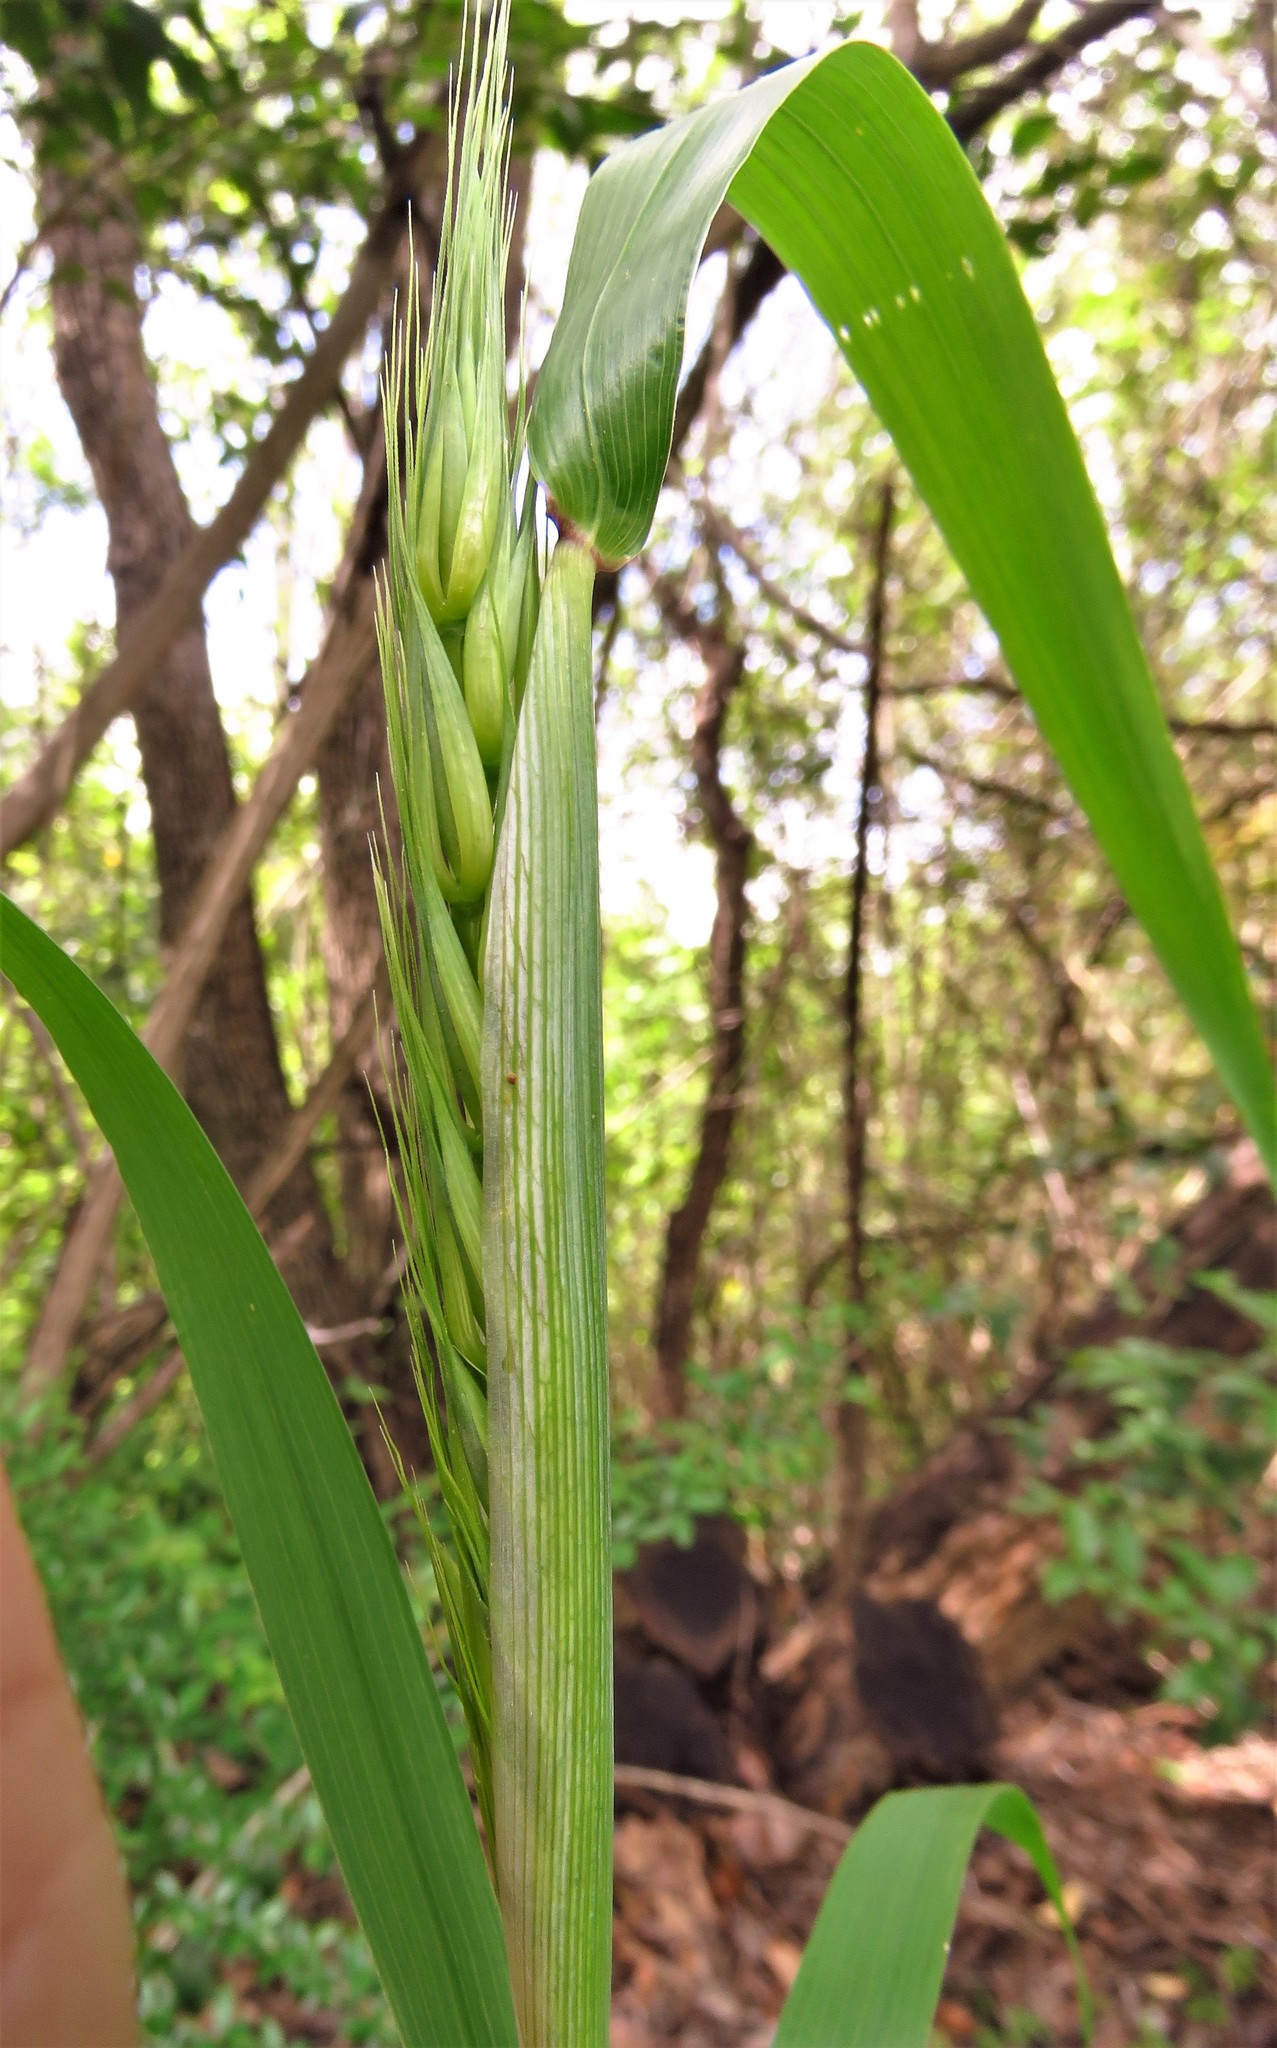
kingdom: Plantae
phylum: Tracheophyta
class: Liliopsida
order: Poales
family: Poaceae
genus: Elymus
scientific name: Elymus virginicus
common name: Common eastern wildrye
